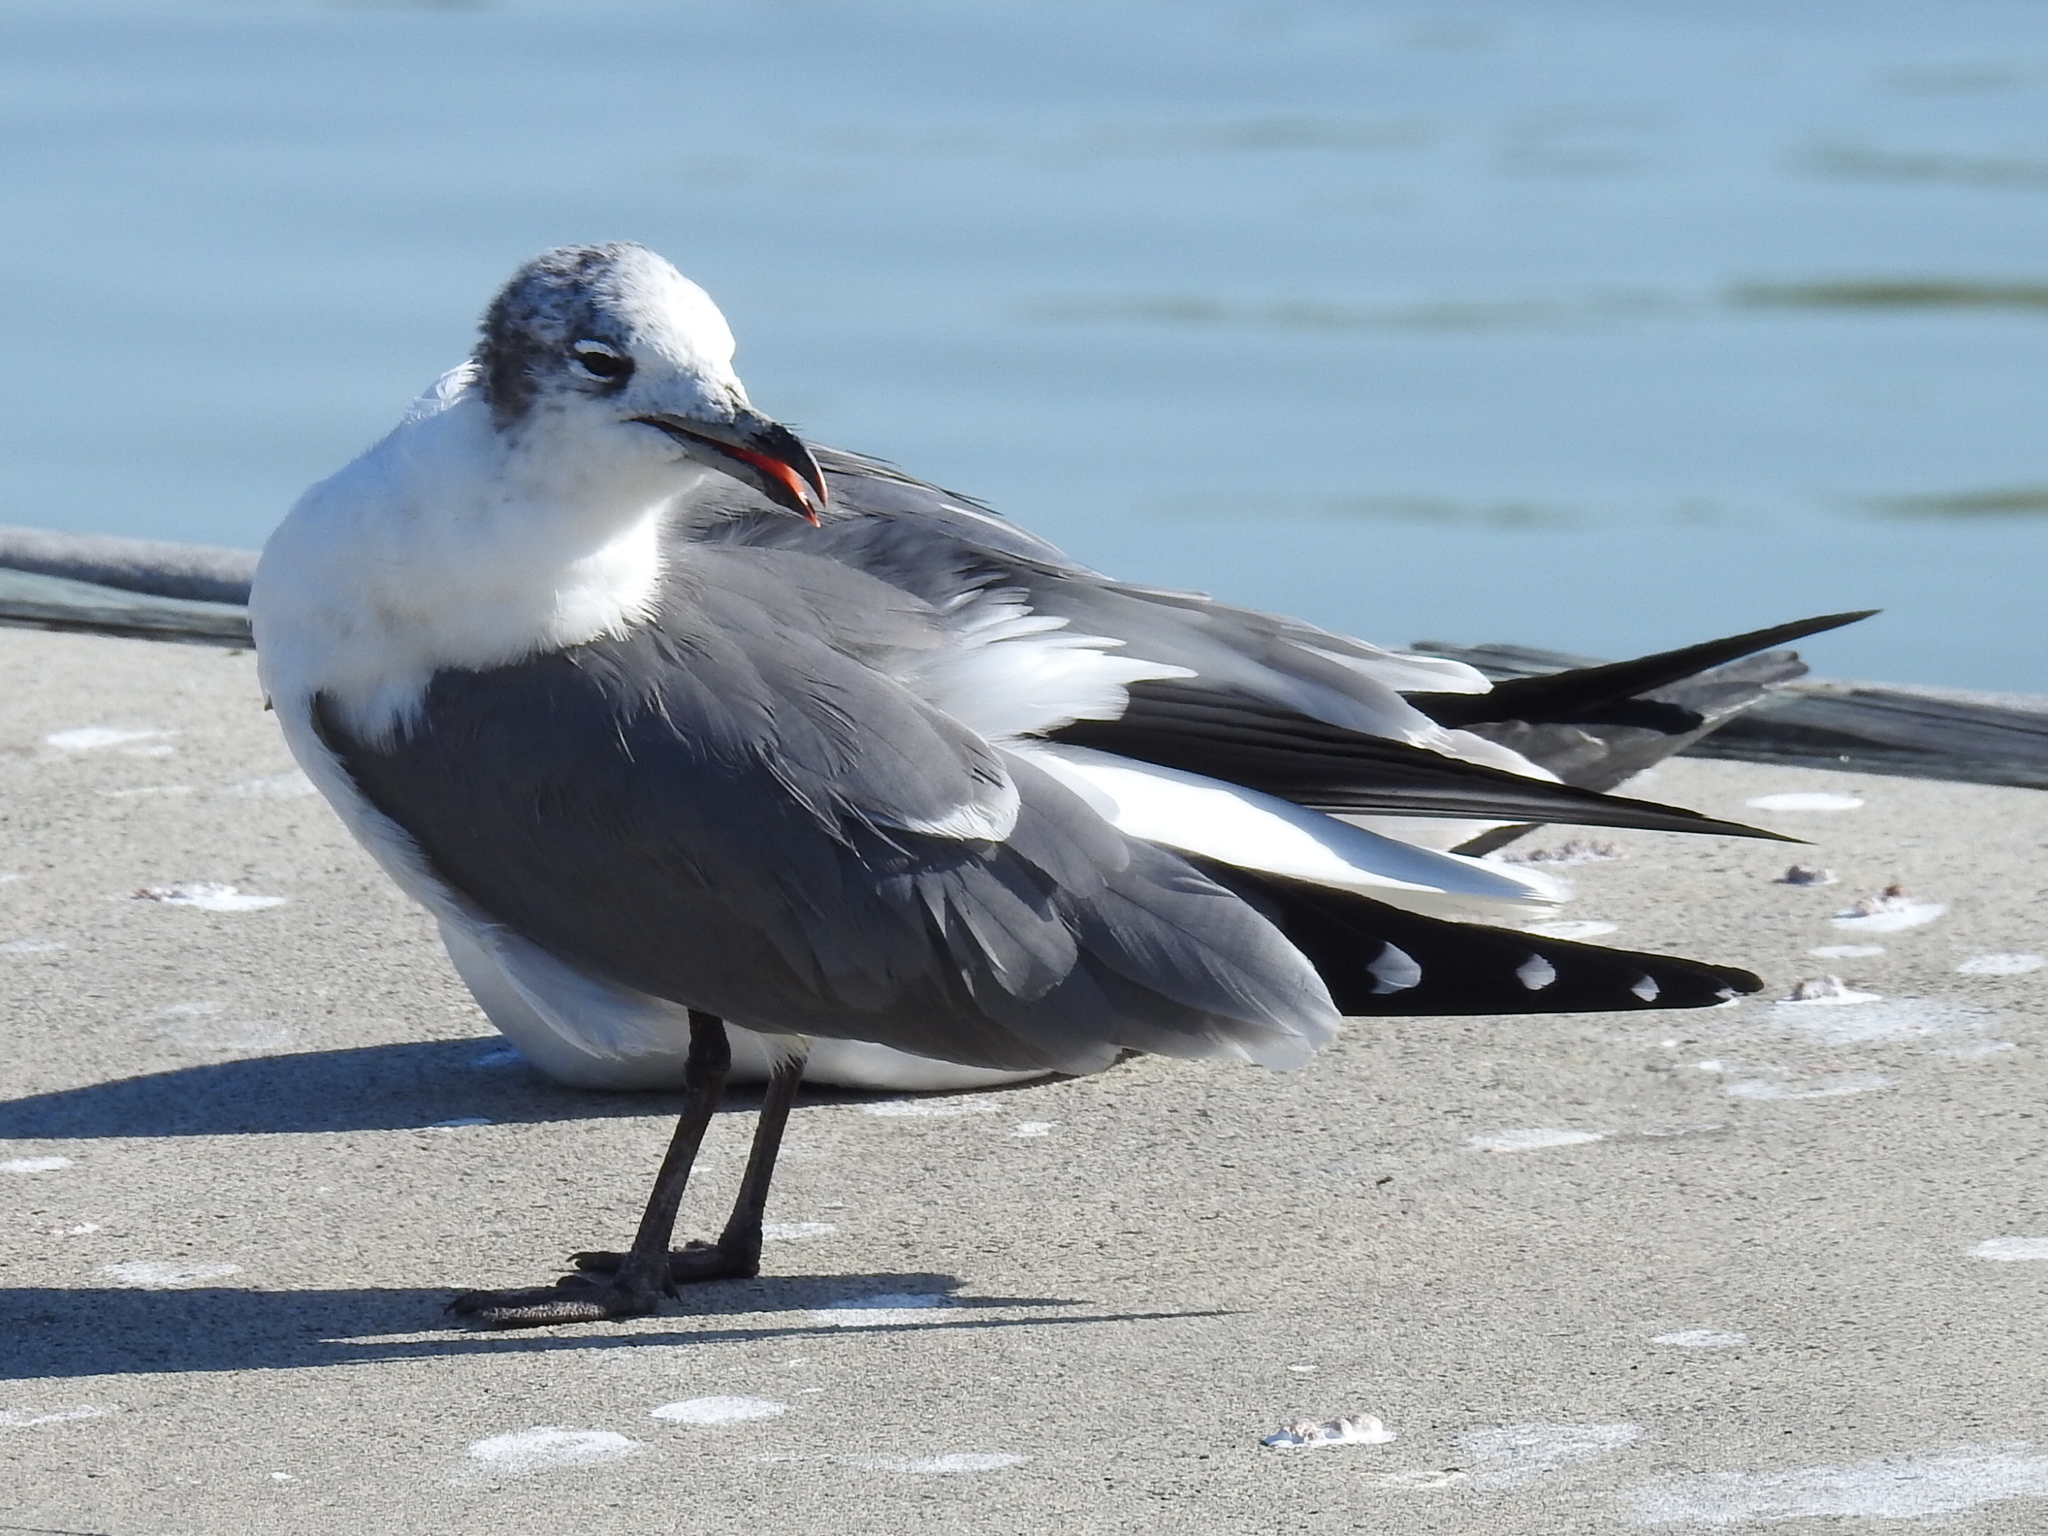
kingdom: Animalia
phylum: Chordata
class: Aves
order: Charadriiformes
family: Laridae
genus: Leucophaeus
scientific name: Leucophaeus atricilla
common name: Laughing gull
